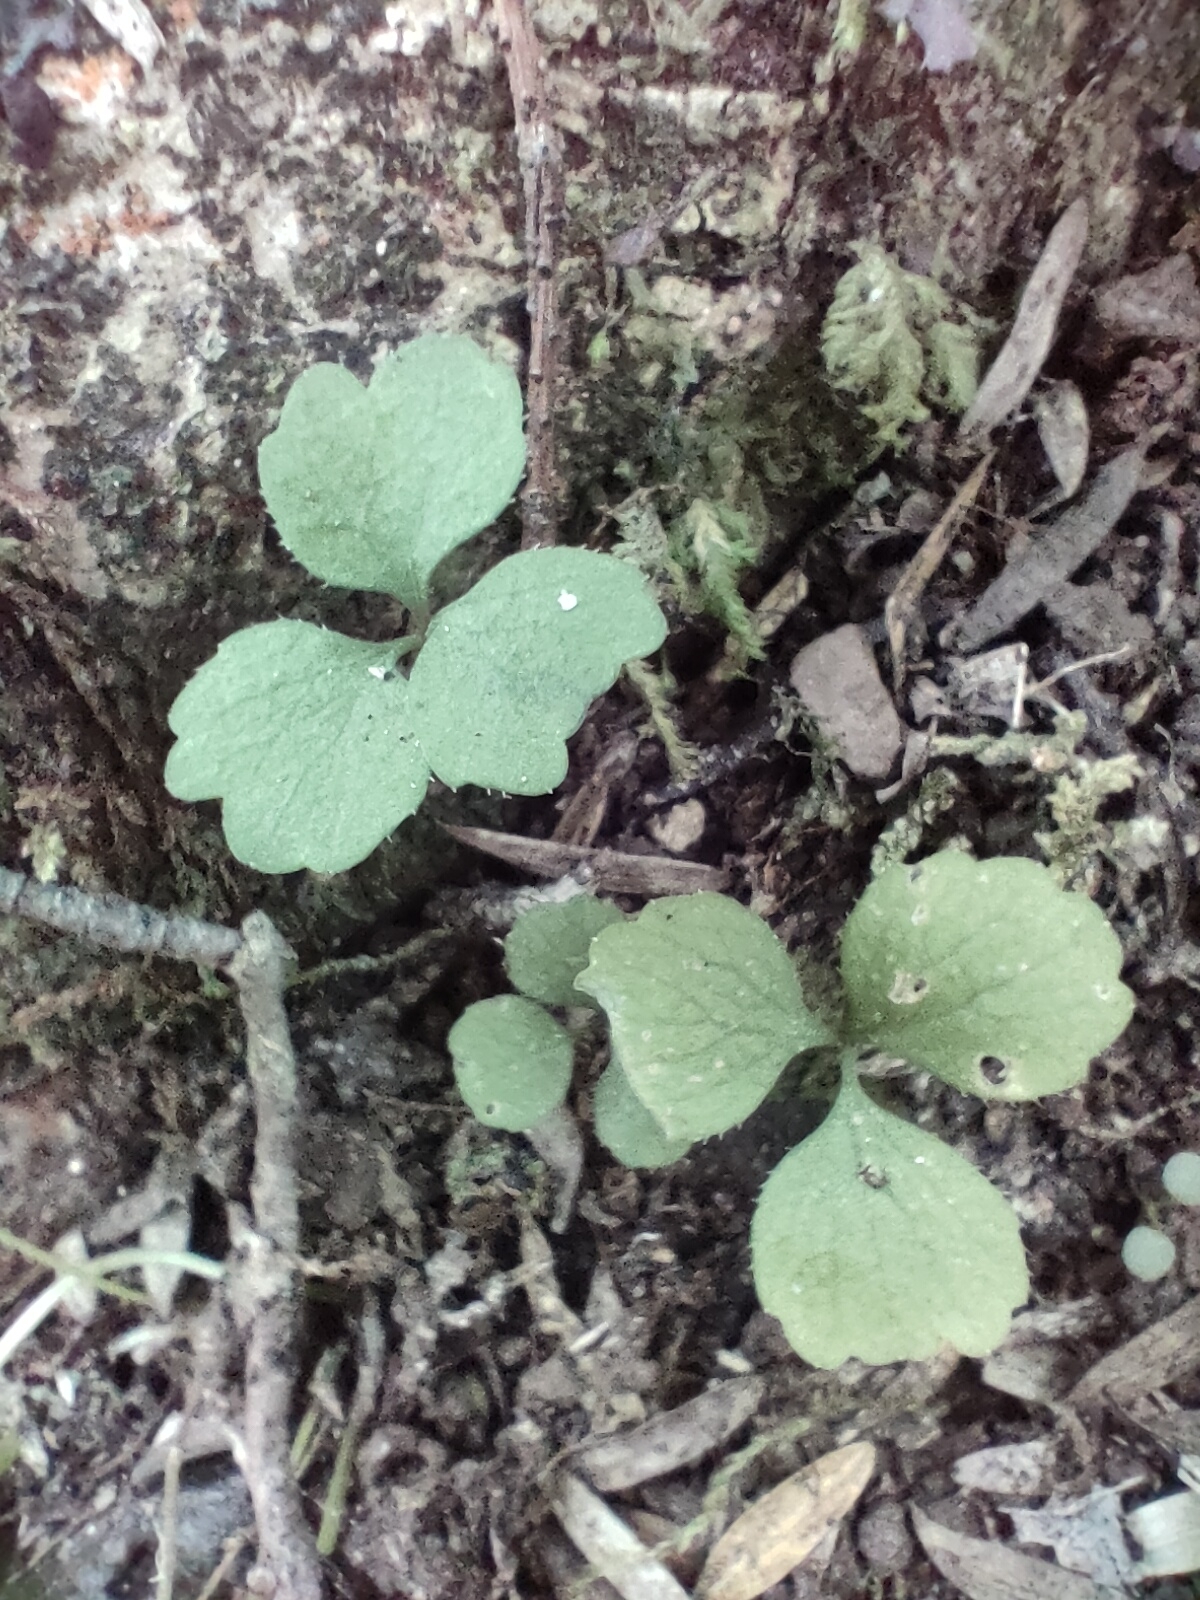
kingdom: Plantae
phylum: Tracheophyta
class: Magnoliopsida
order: Apiales
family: Apiaceae
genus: Azorella
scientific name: Azorella hookeri
